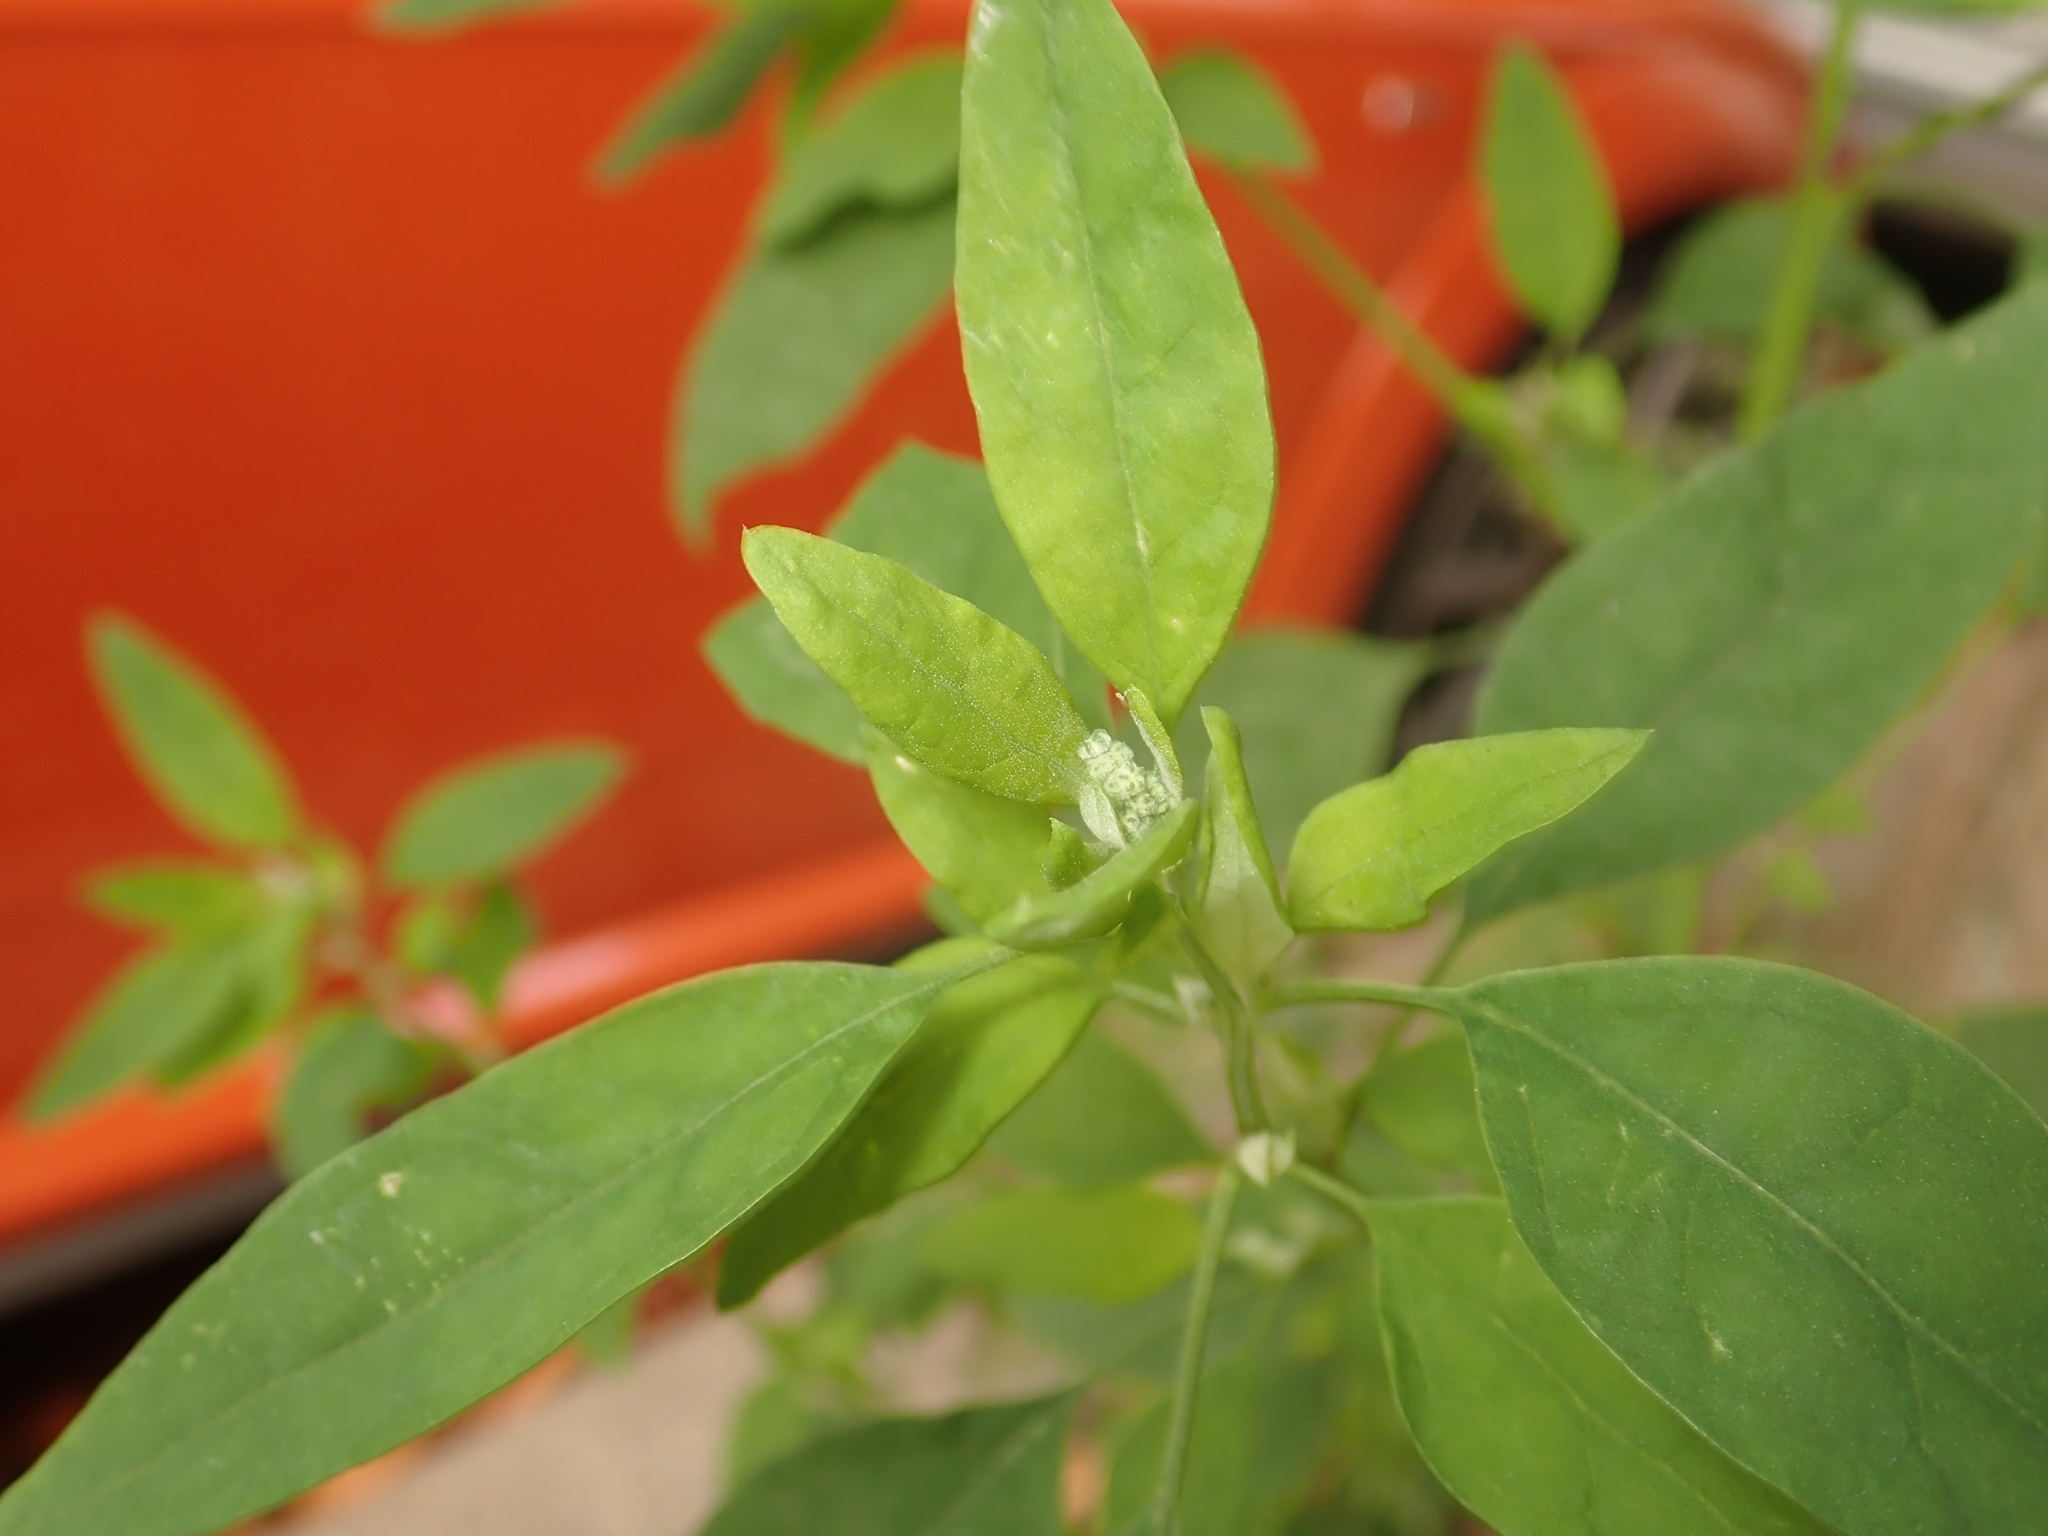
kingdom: Plantae
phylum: Tracheophyta
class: Magnoliopsida
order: Caryophyllales
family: Amaranthaceae
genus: Chenopodium
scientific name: Chenopodium album
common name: Fat-hen
